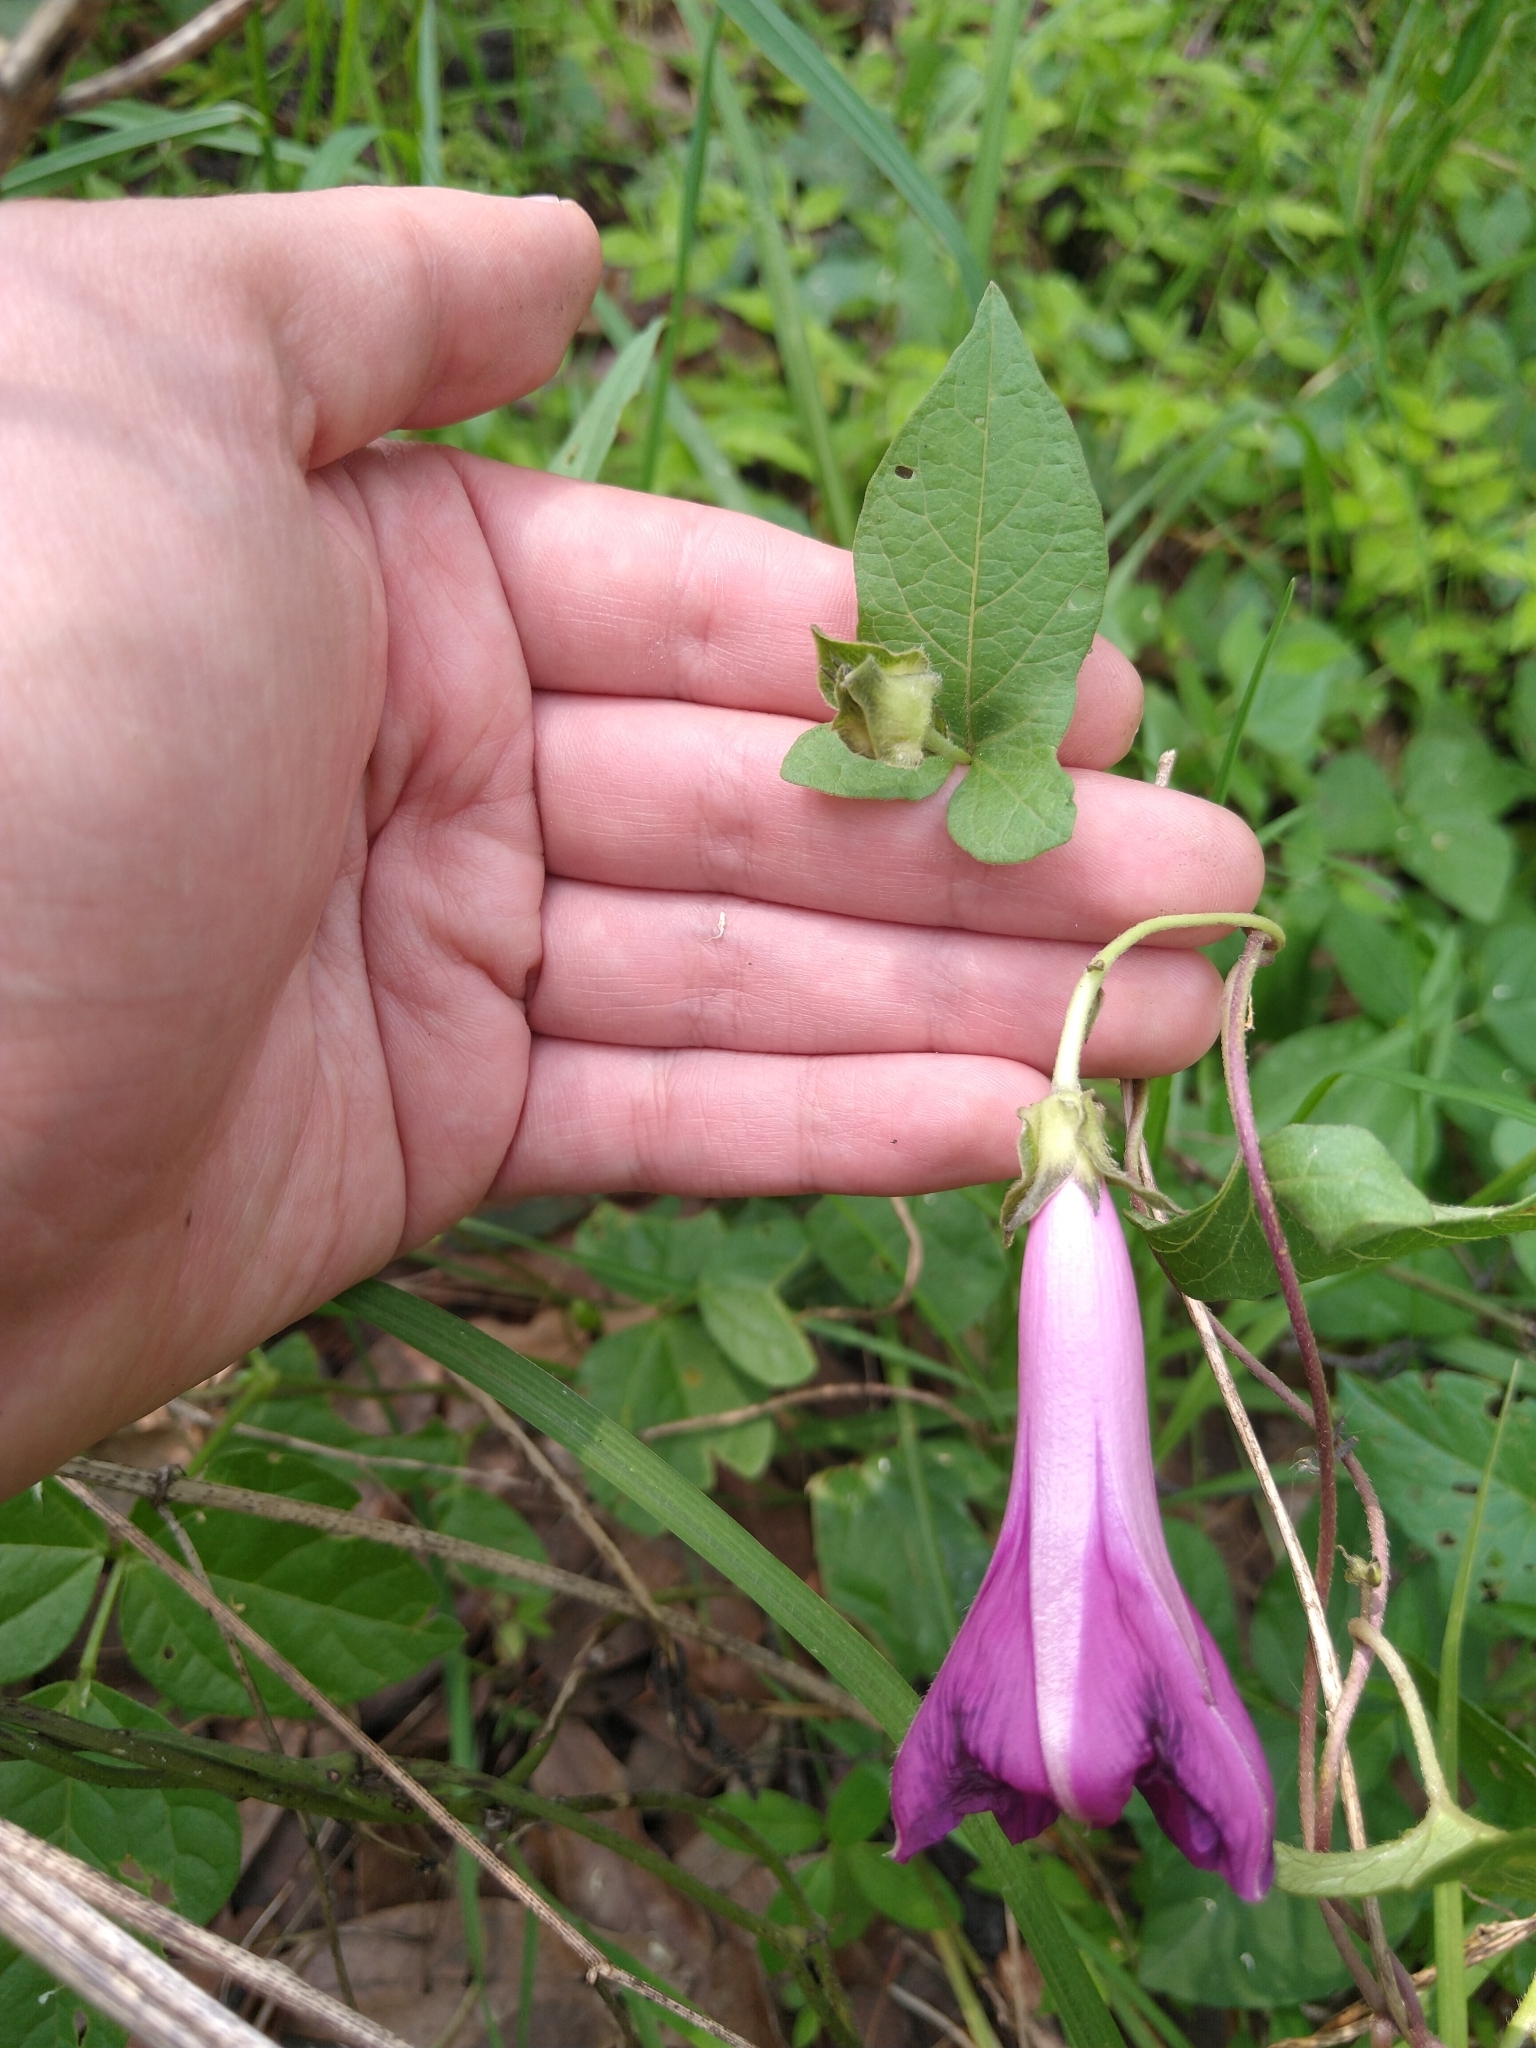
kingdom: Plantae
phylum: Tracheophyta
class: Magnoliopsida
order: Solanales
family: Convolvulaceae
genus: Ipomoea
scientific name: Ipomoea decasperma
